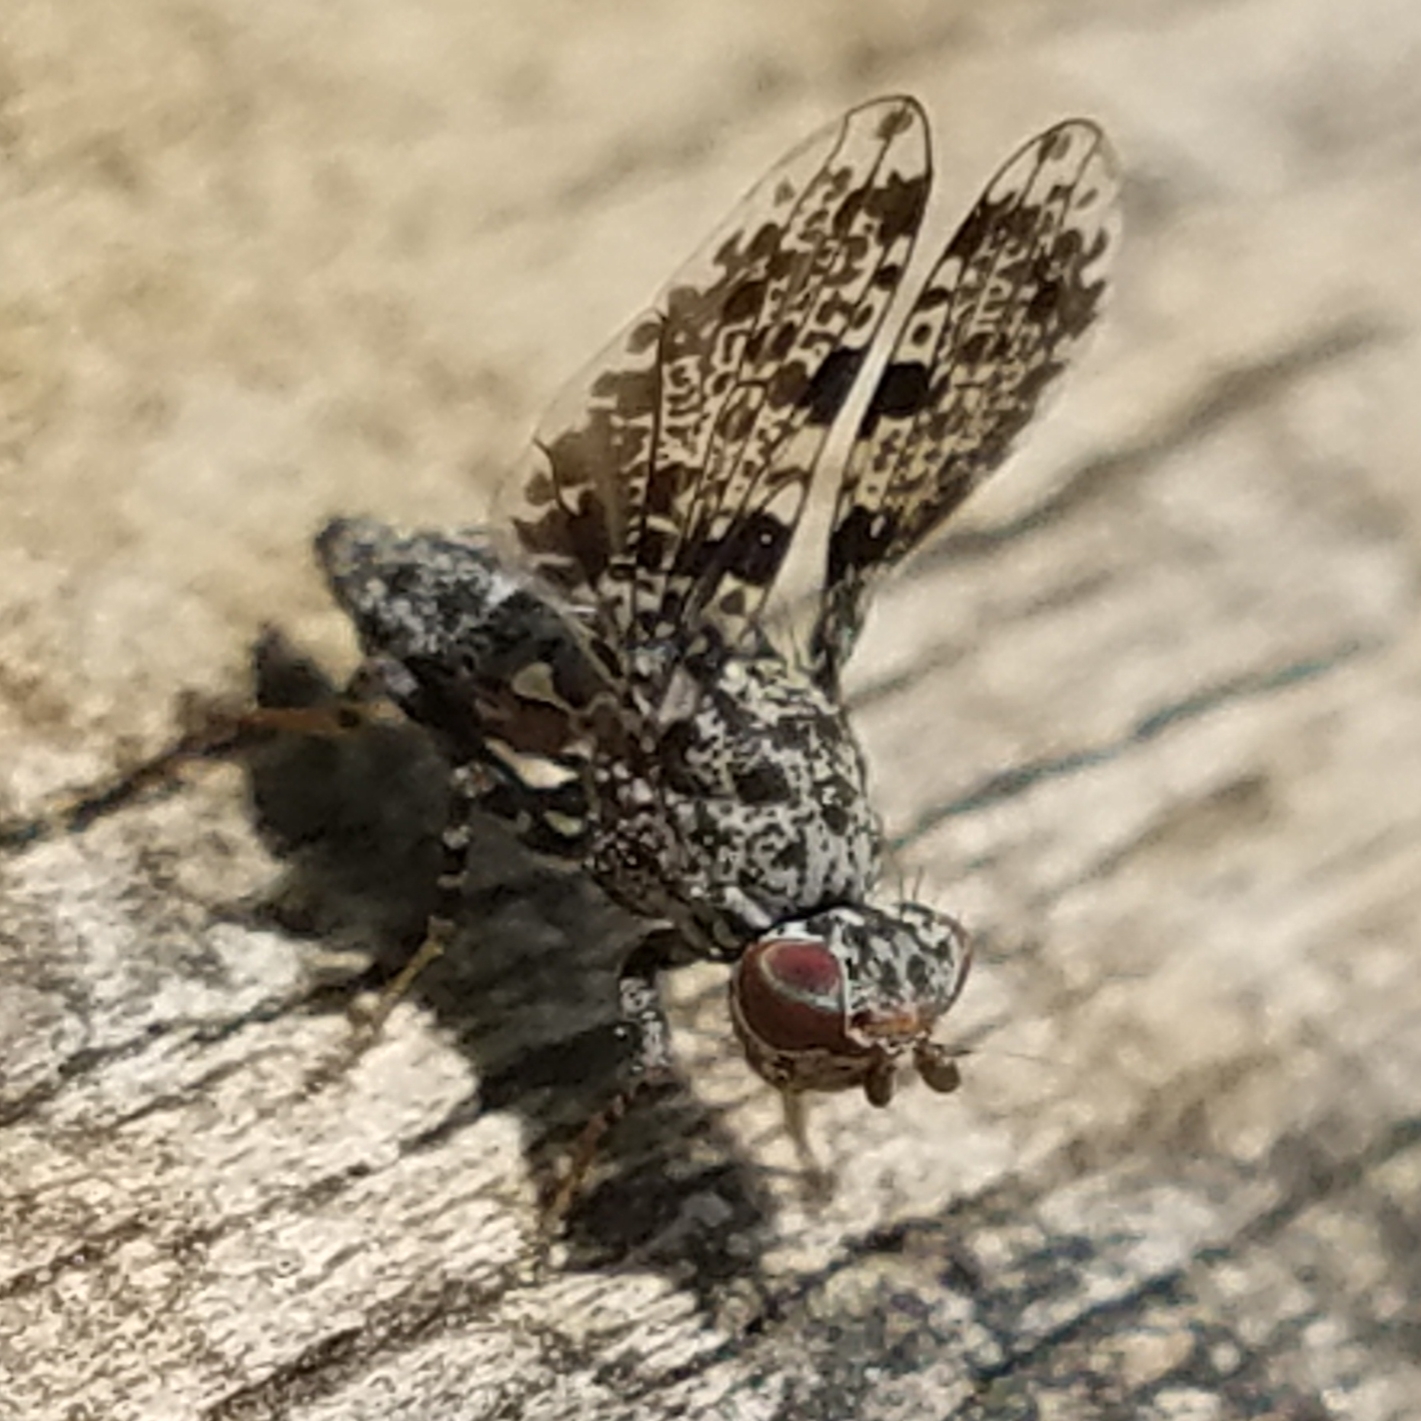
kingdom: Animalia
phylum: Arthropoda
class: Insecta
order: Diptera
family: Ulidiidae
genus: Callopistromyia
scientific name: Callopistromyia annulipes
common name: Peacock fly
